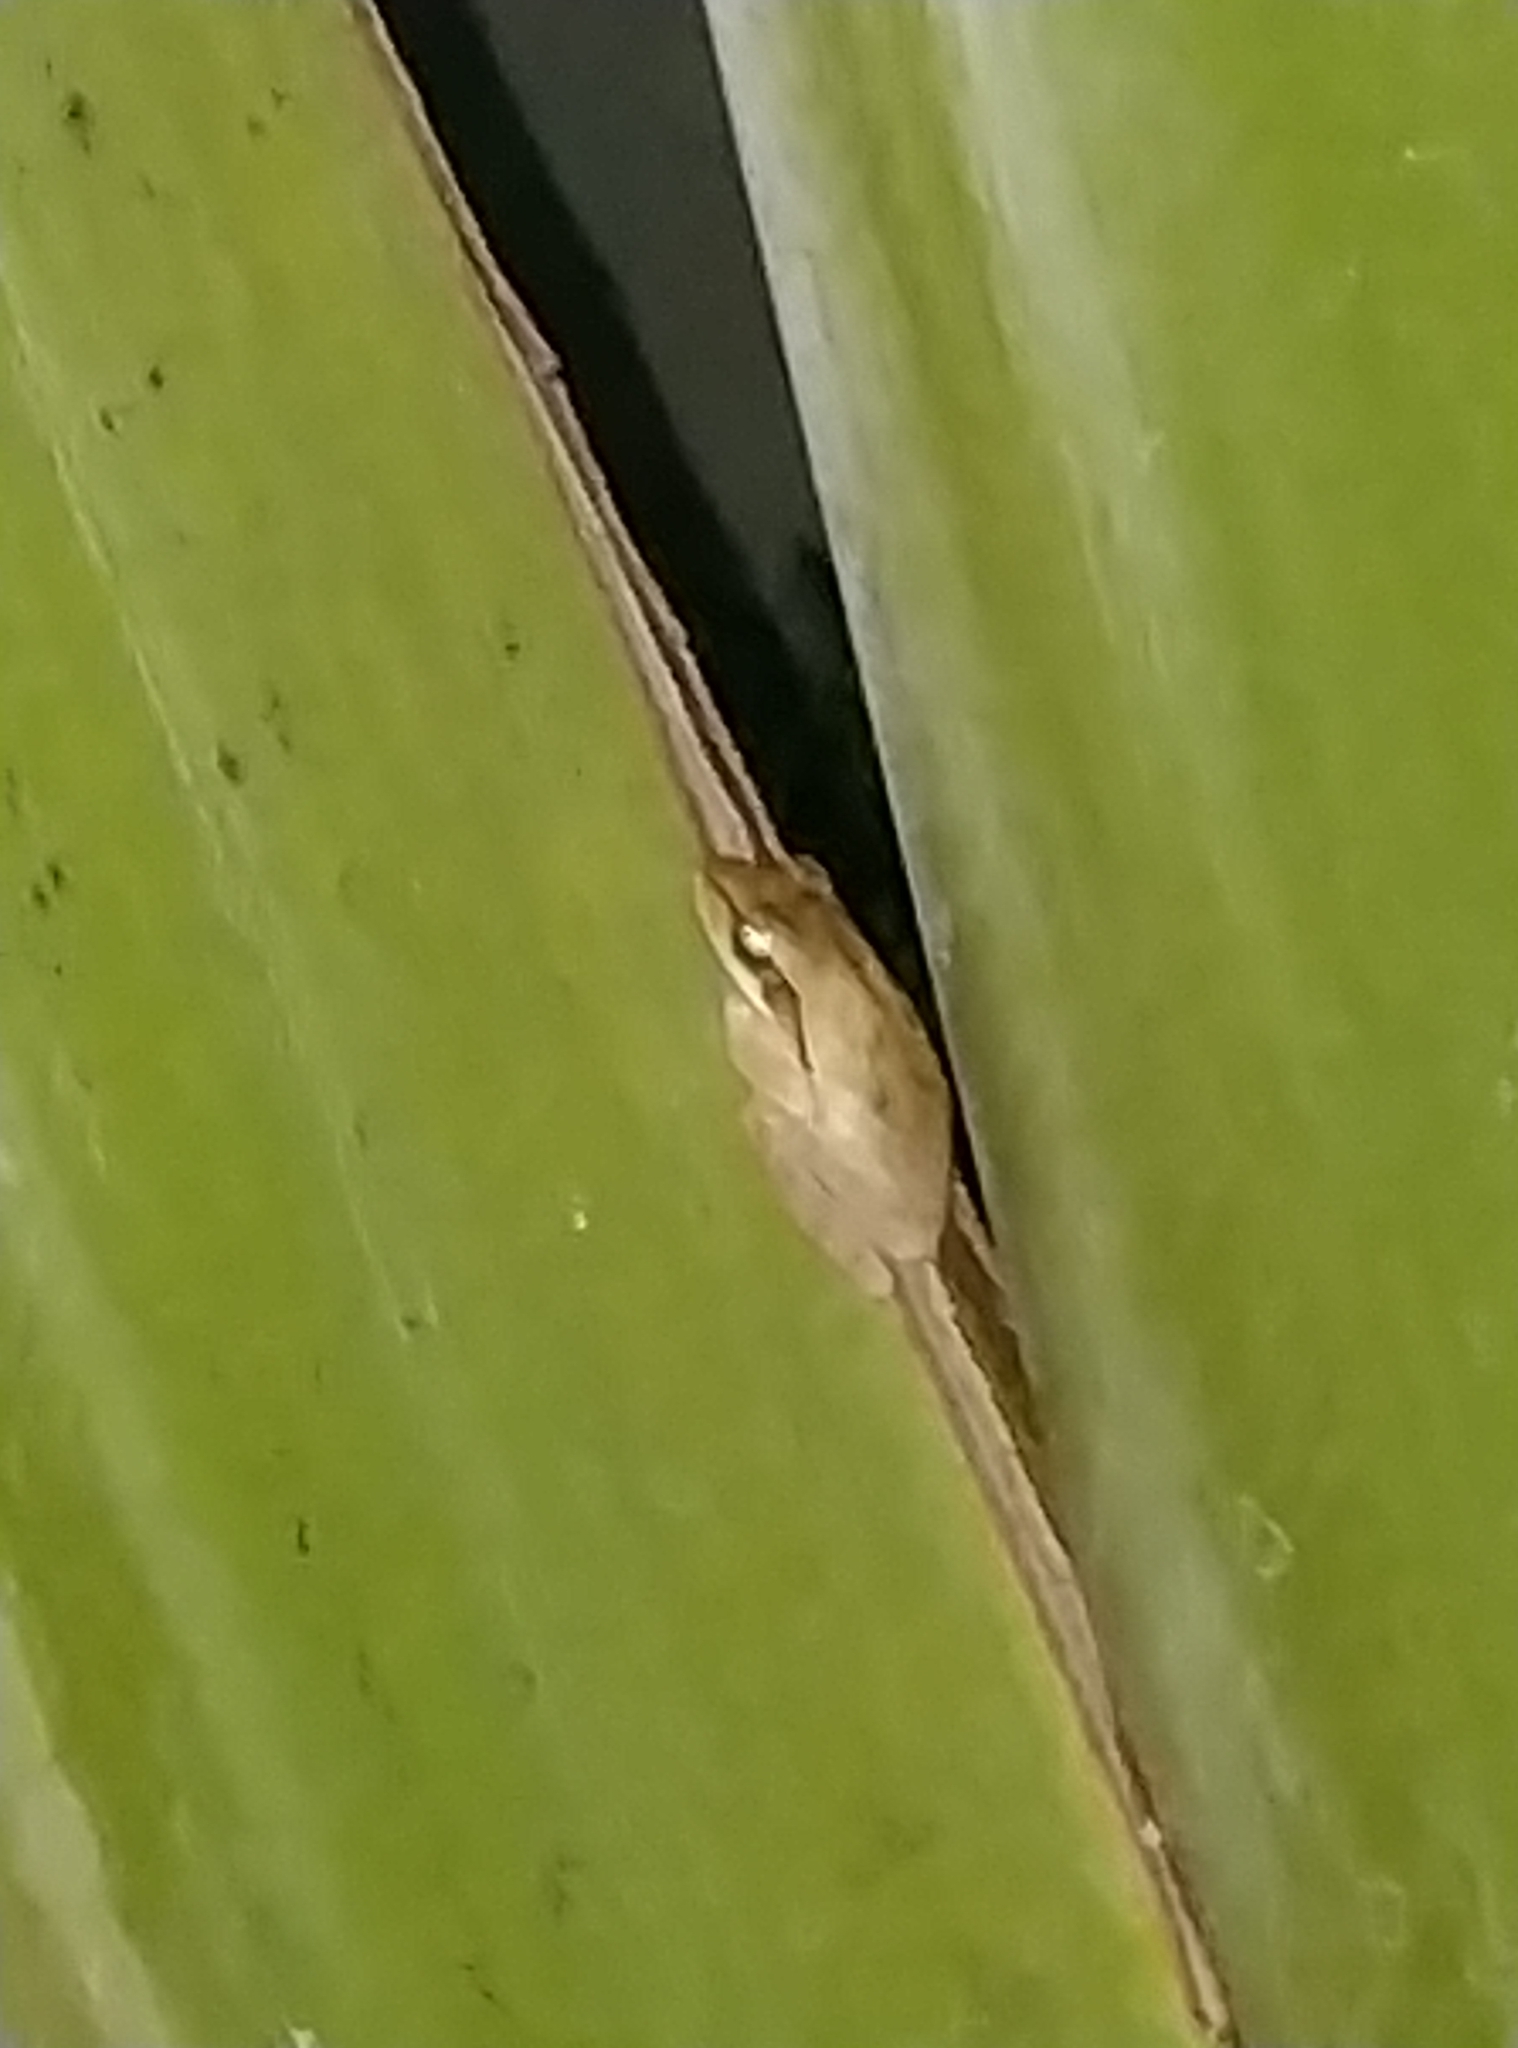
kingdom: Animalia
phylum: Chordata
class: Amphibia
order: Anura
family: Rhacophoridae
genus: Polypedates
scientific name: Polypedates maculatus
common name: Himalayan tree frog
